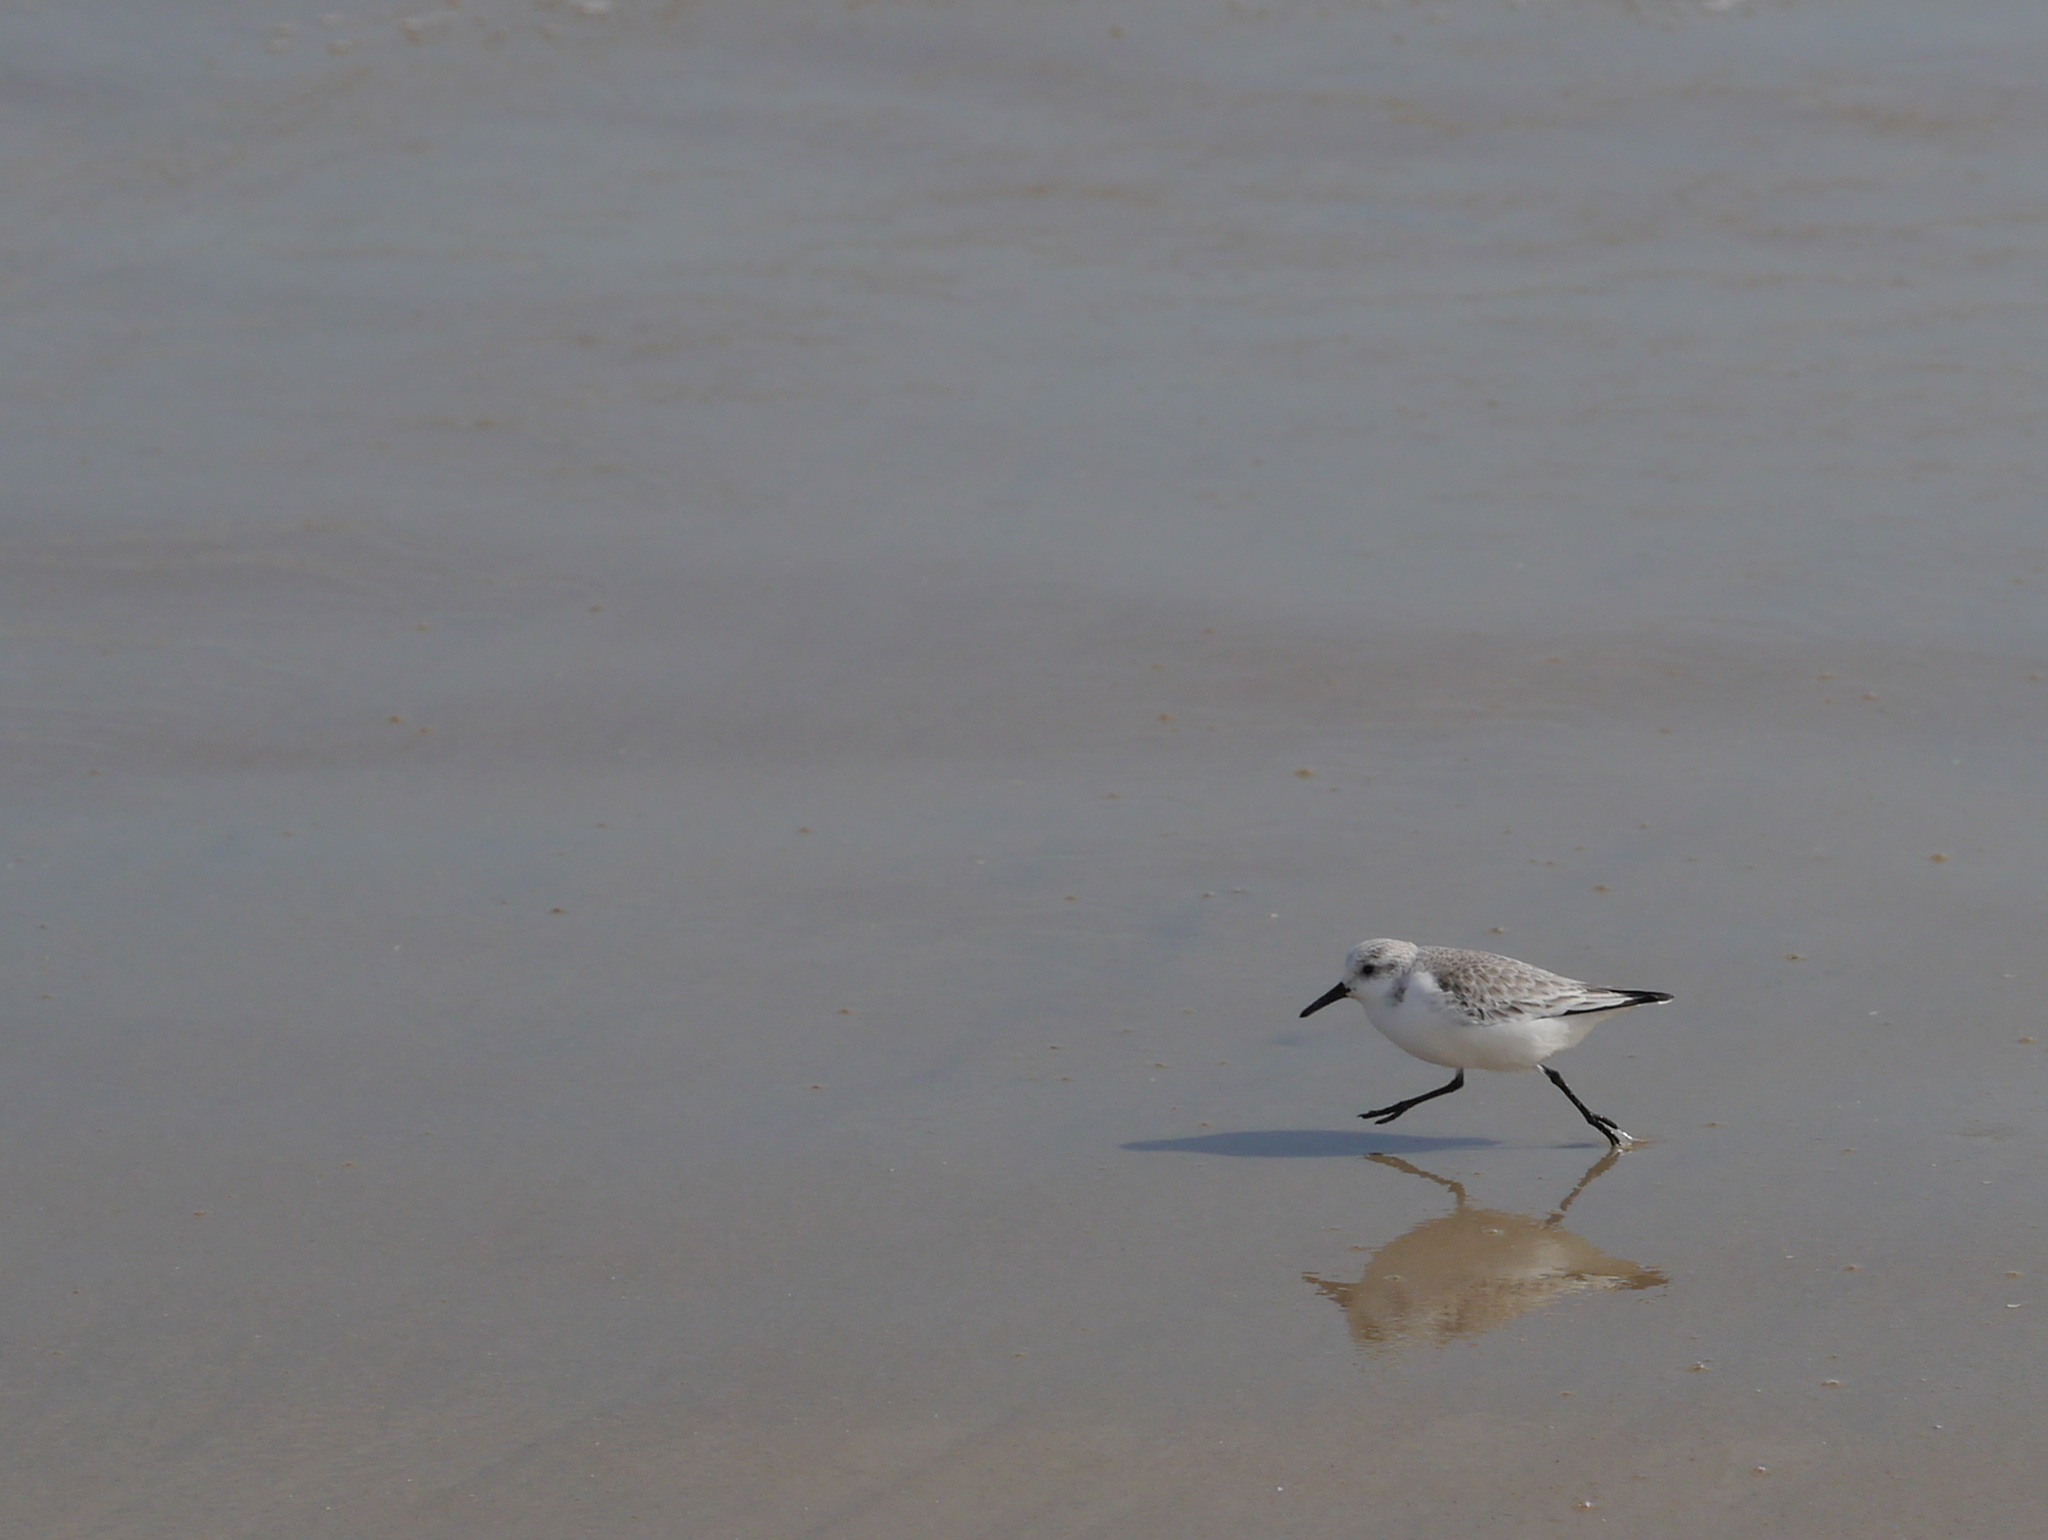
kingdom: Animalia
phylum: Chordata
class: Aves
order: Charadriiformes
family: Scolopacidae
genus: Calidris
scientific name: Calidris alba
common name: Sanderling
